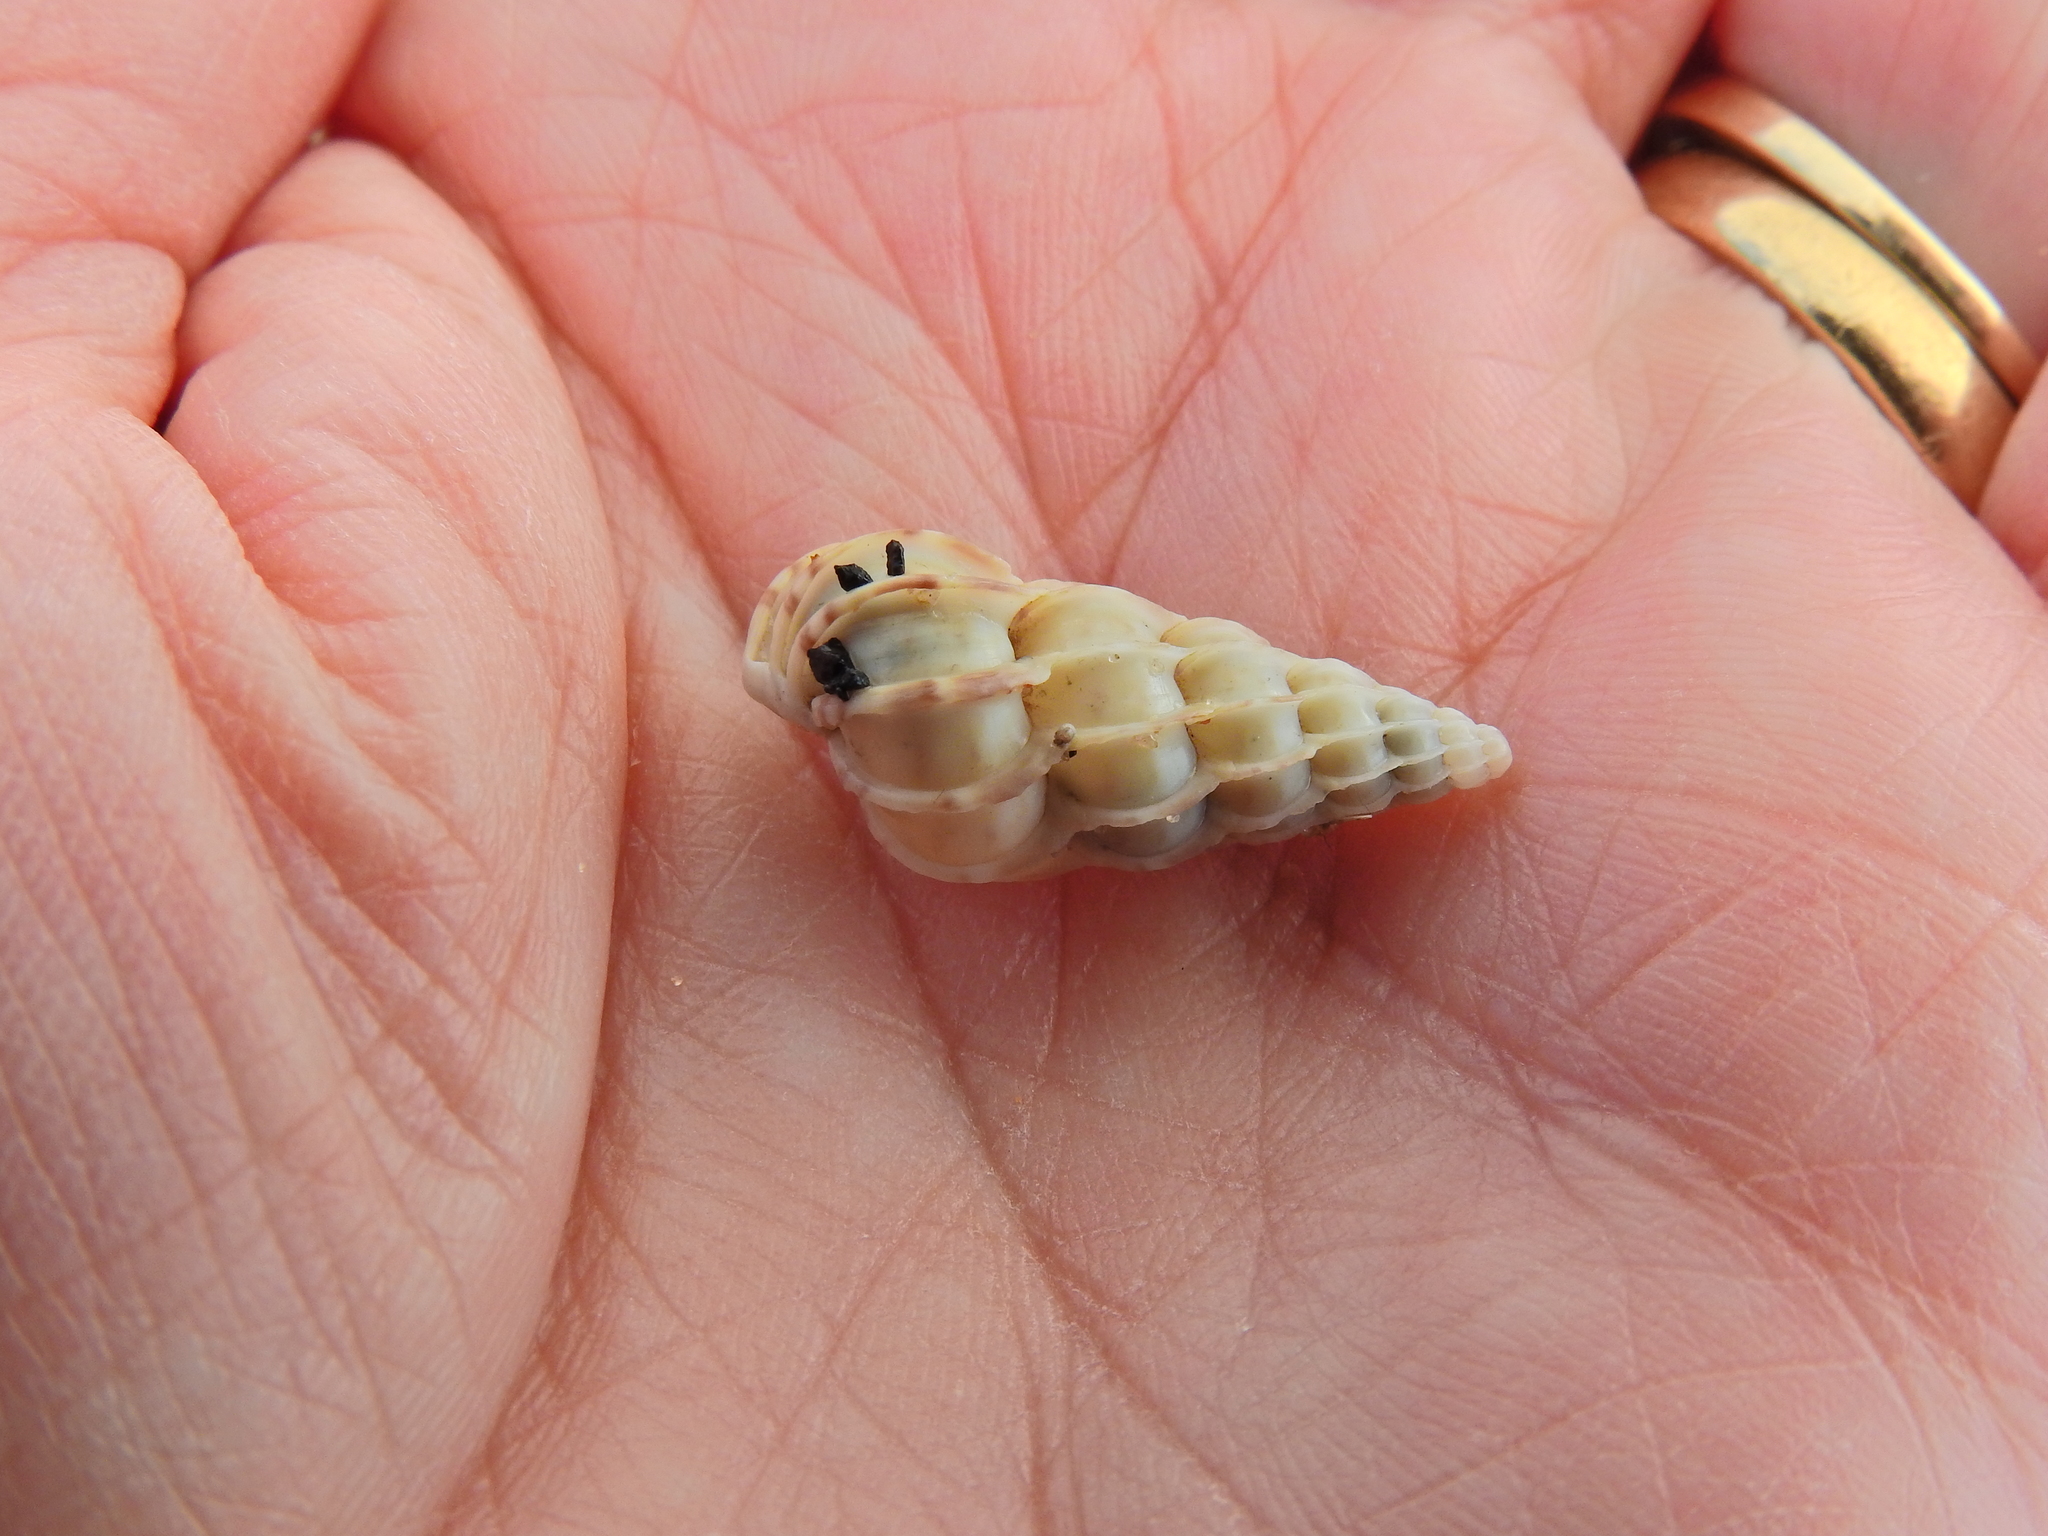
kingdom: Animalia
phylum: Mollusca
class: Gastropoda
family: Epitoniidae
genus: Epitonium
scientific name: Epitonium clathrus
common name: Common wentletrap
